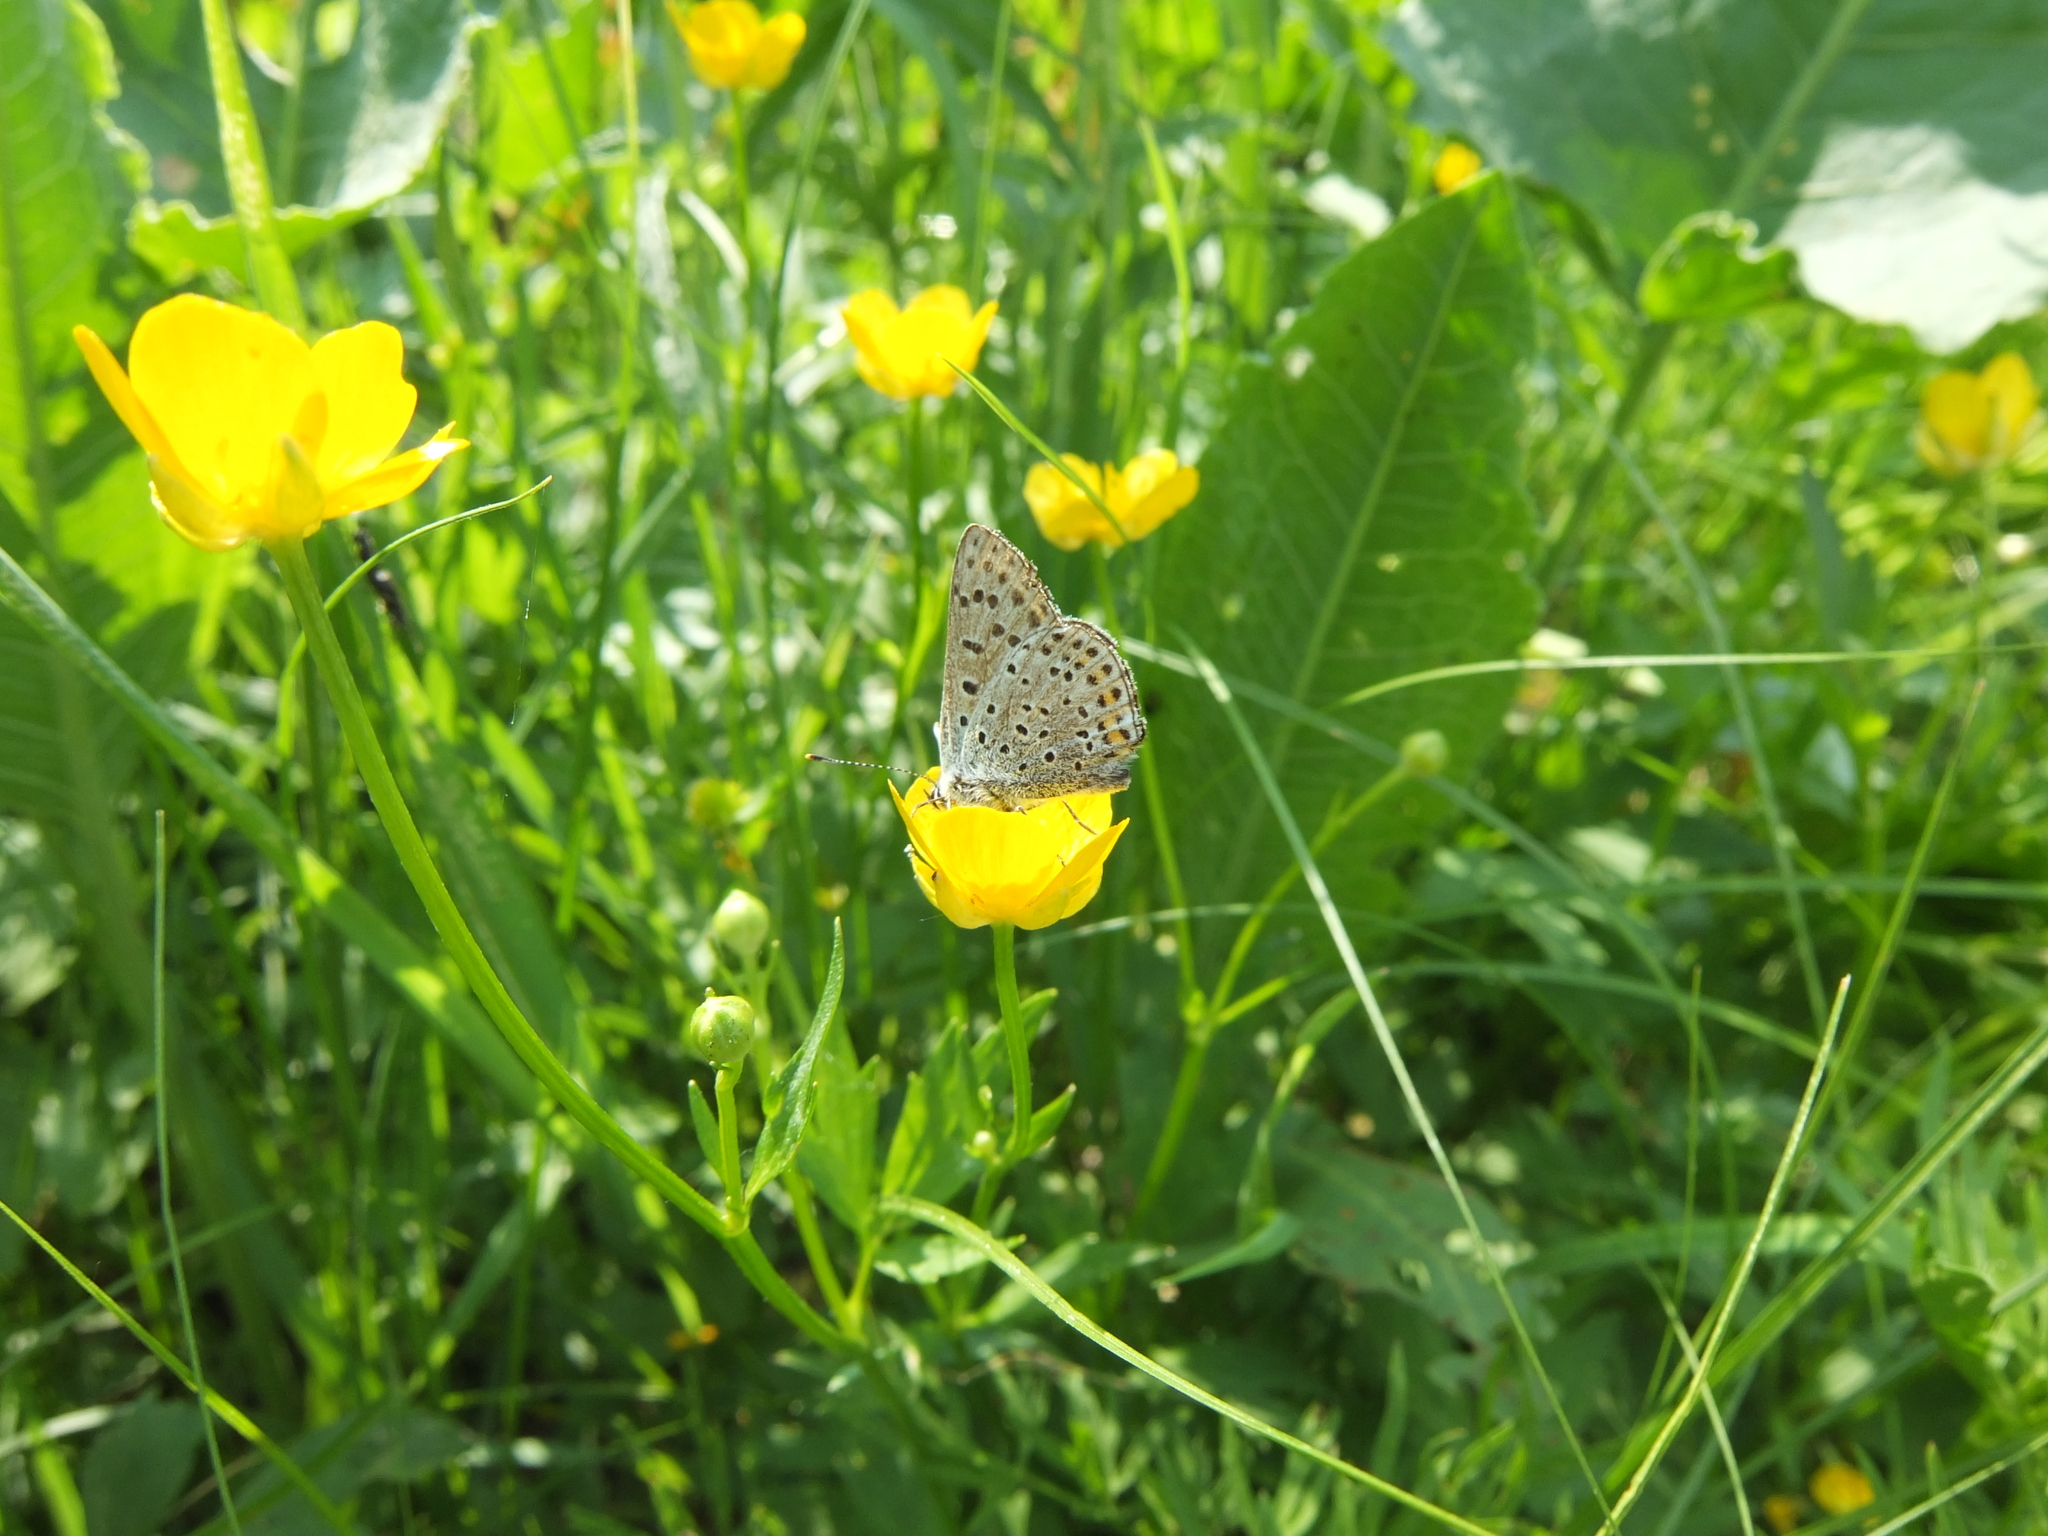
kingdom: Animalia
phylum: Arthropoda
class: Insecta
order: Lepidoptera
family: Lycaenidae
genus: Loweia
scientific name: Loweia tityrus
